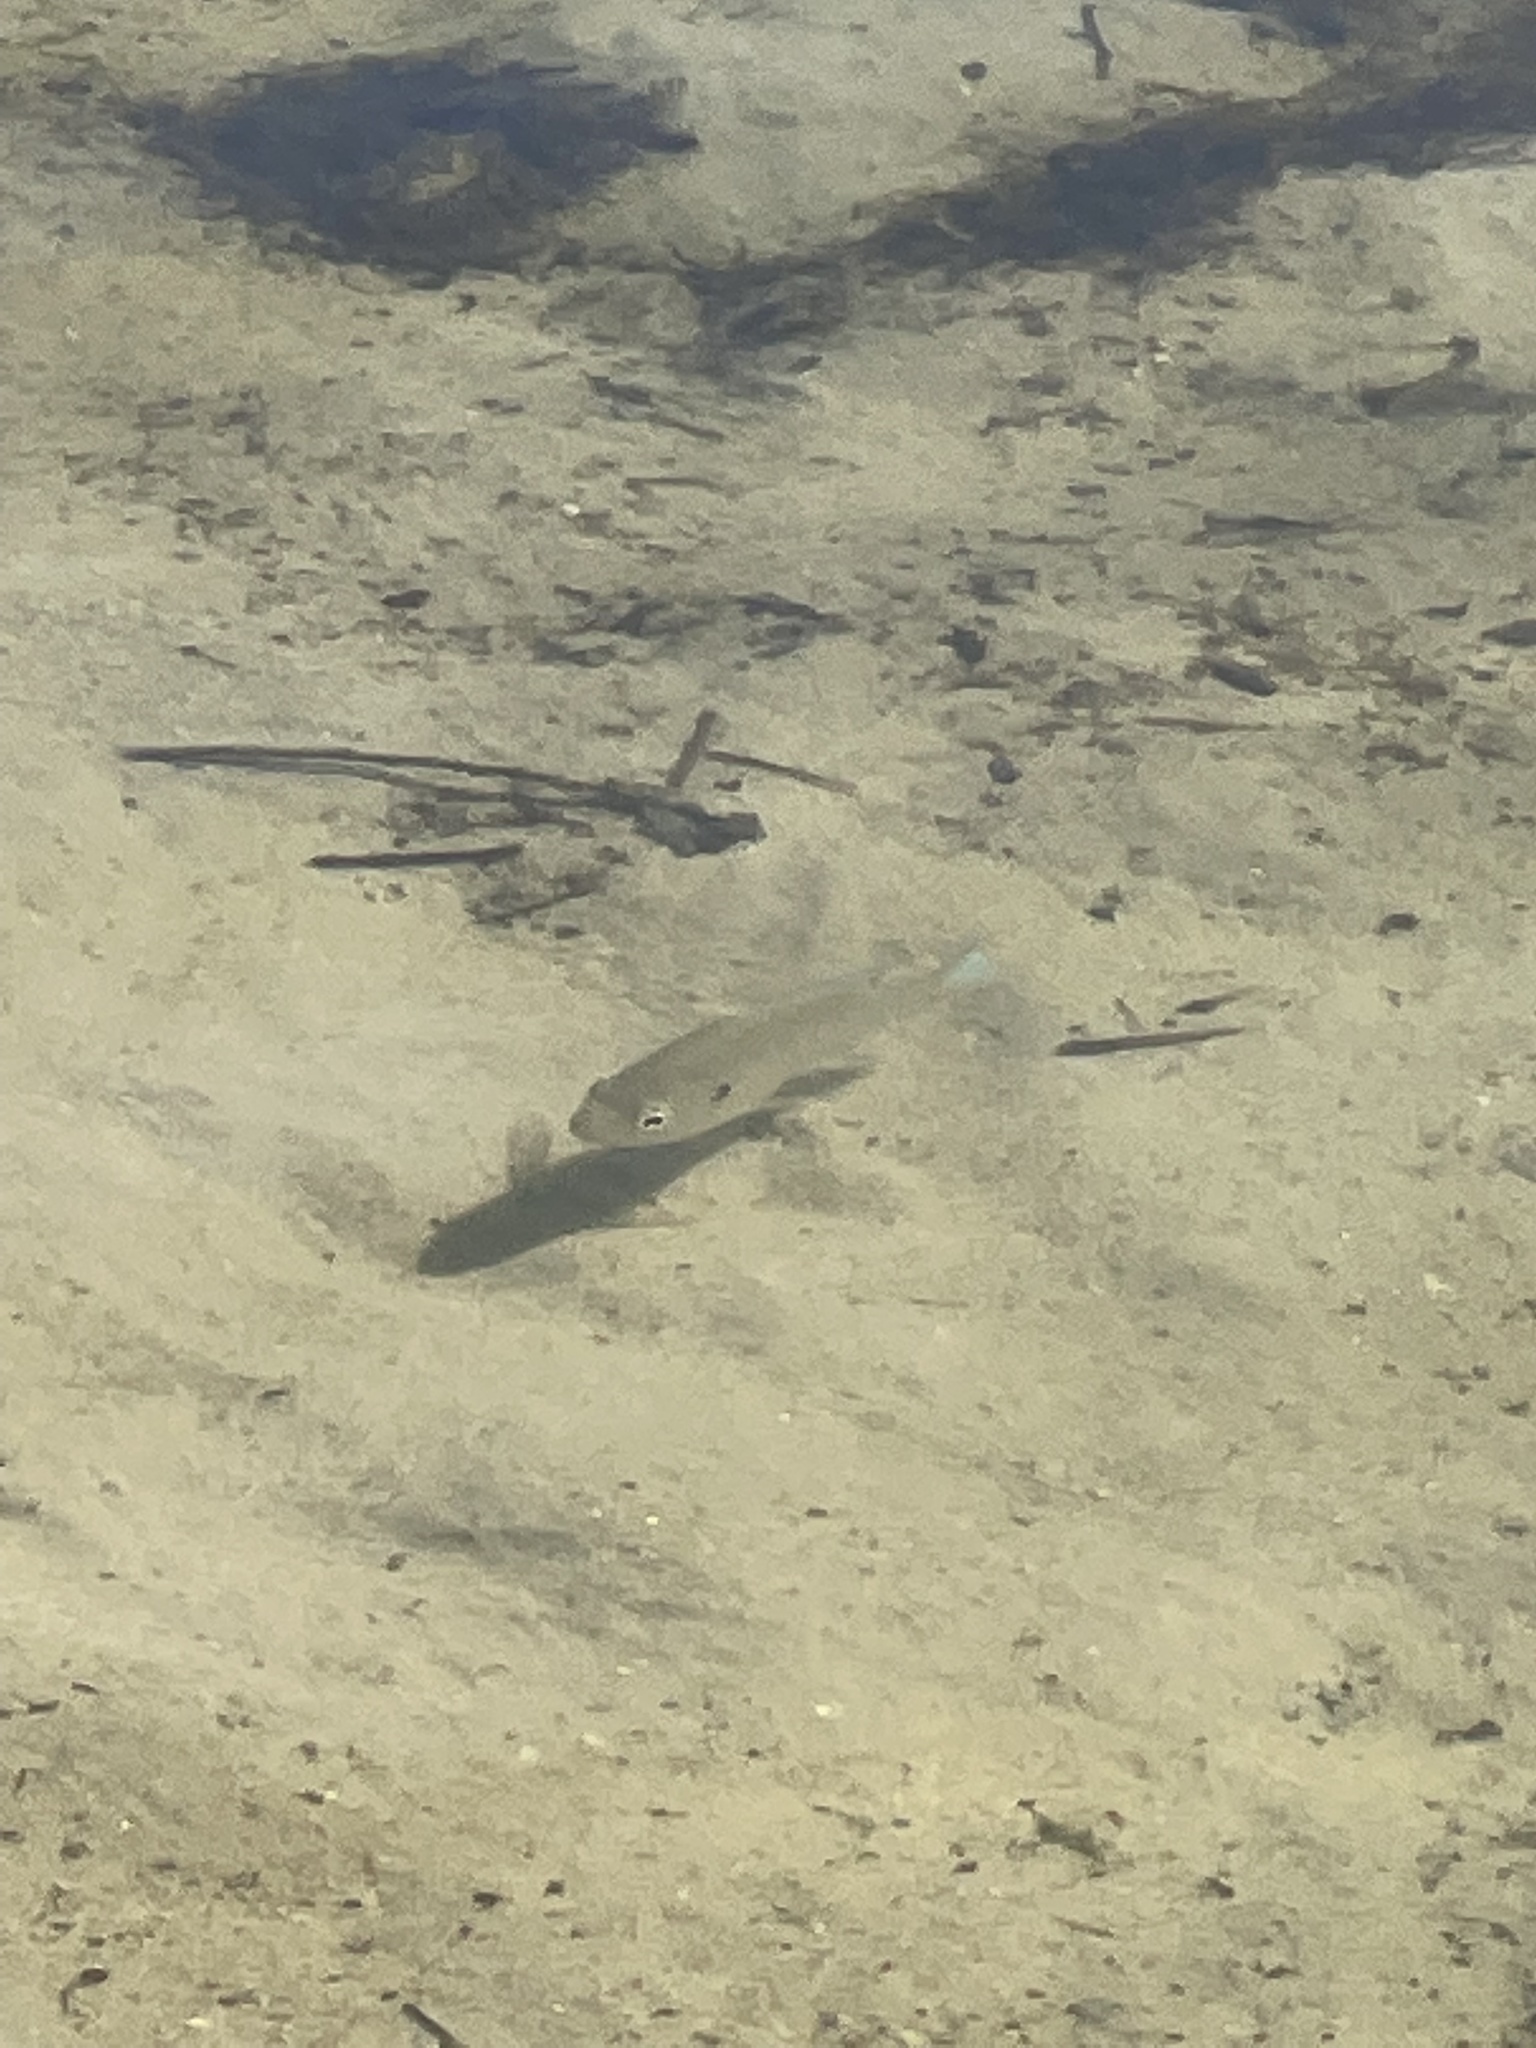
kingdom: Animalia
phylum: Chordata
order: Perciformes
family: Centrarchidae
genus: Lepomis
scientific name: Lepomis macrochirus
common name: Bluegill
